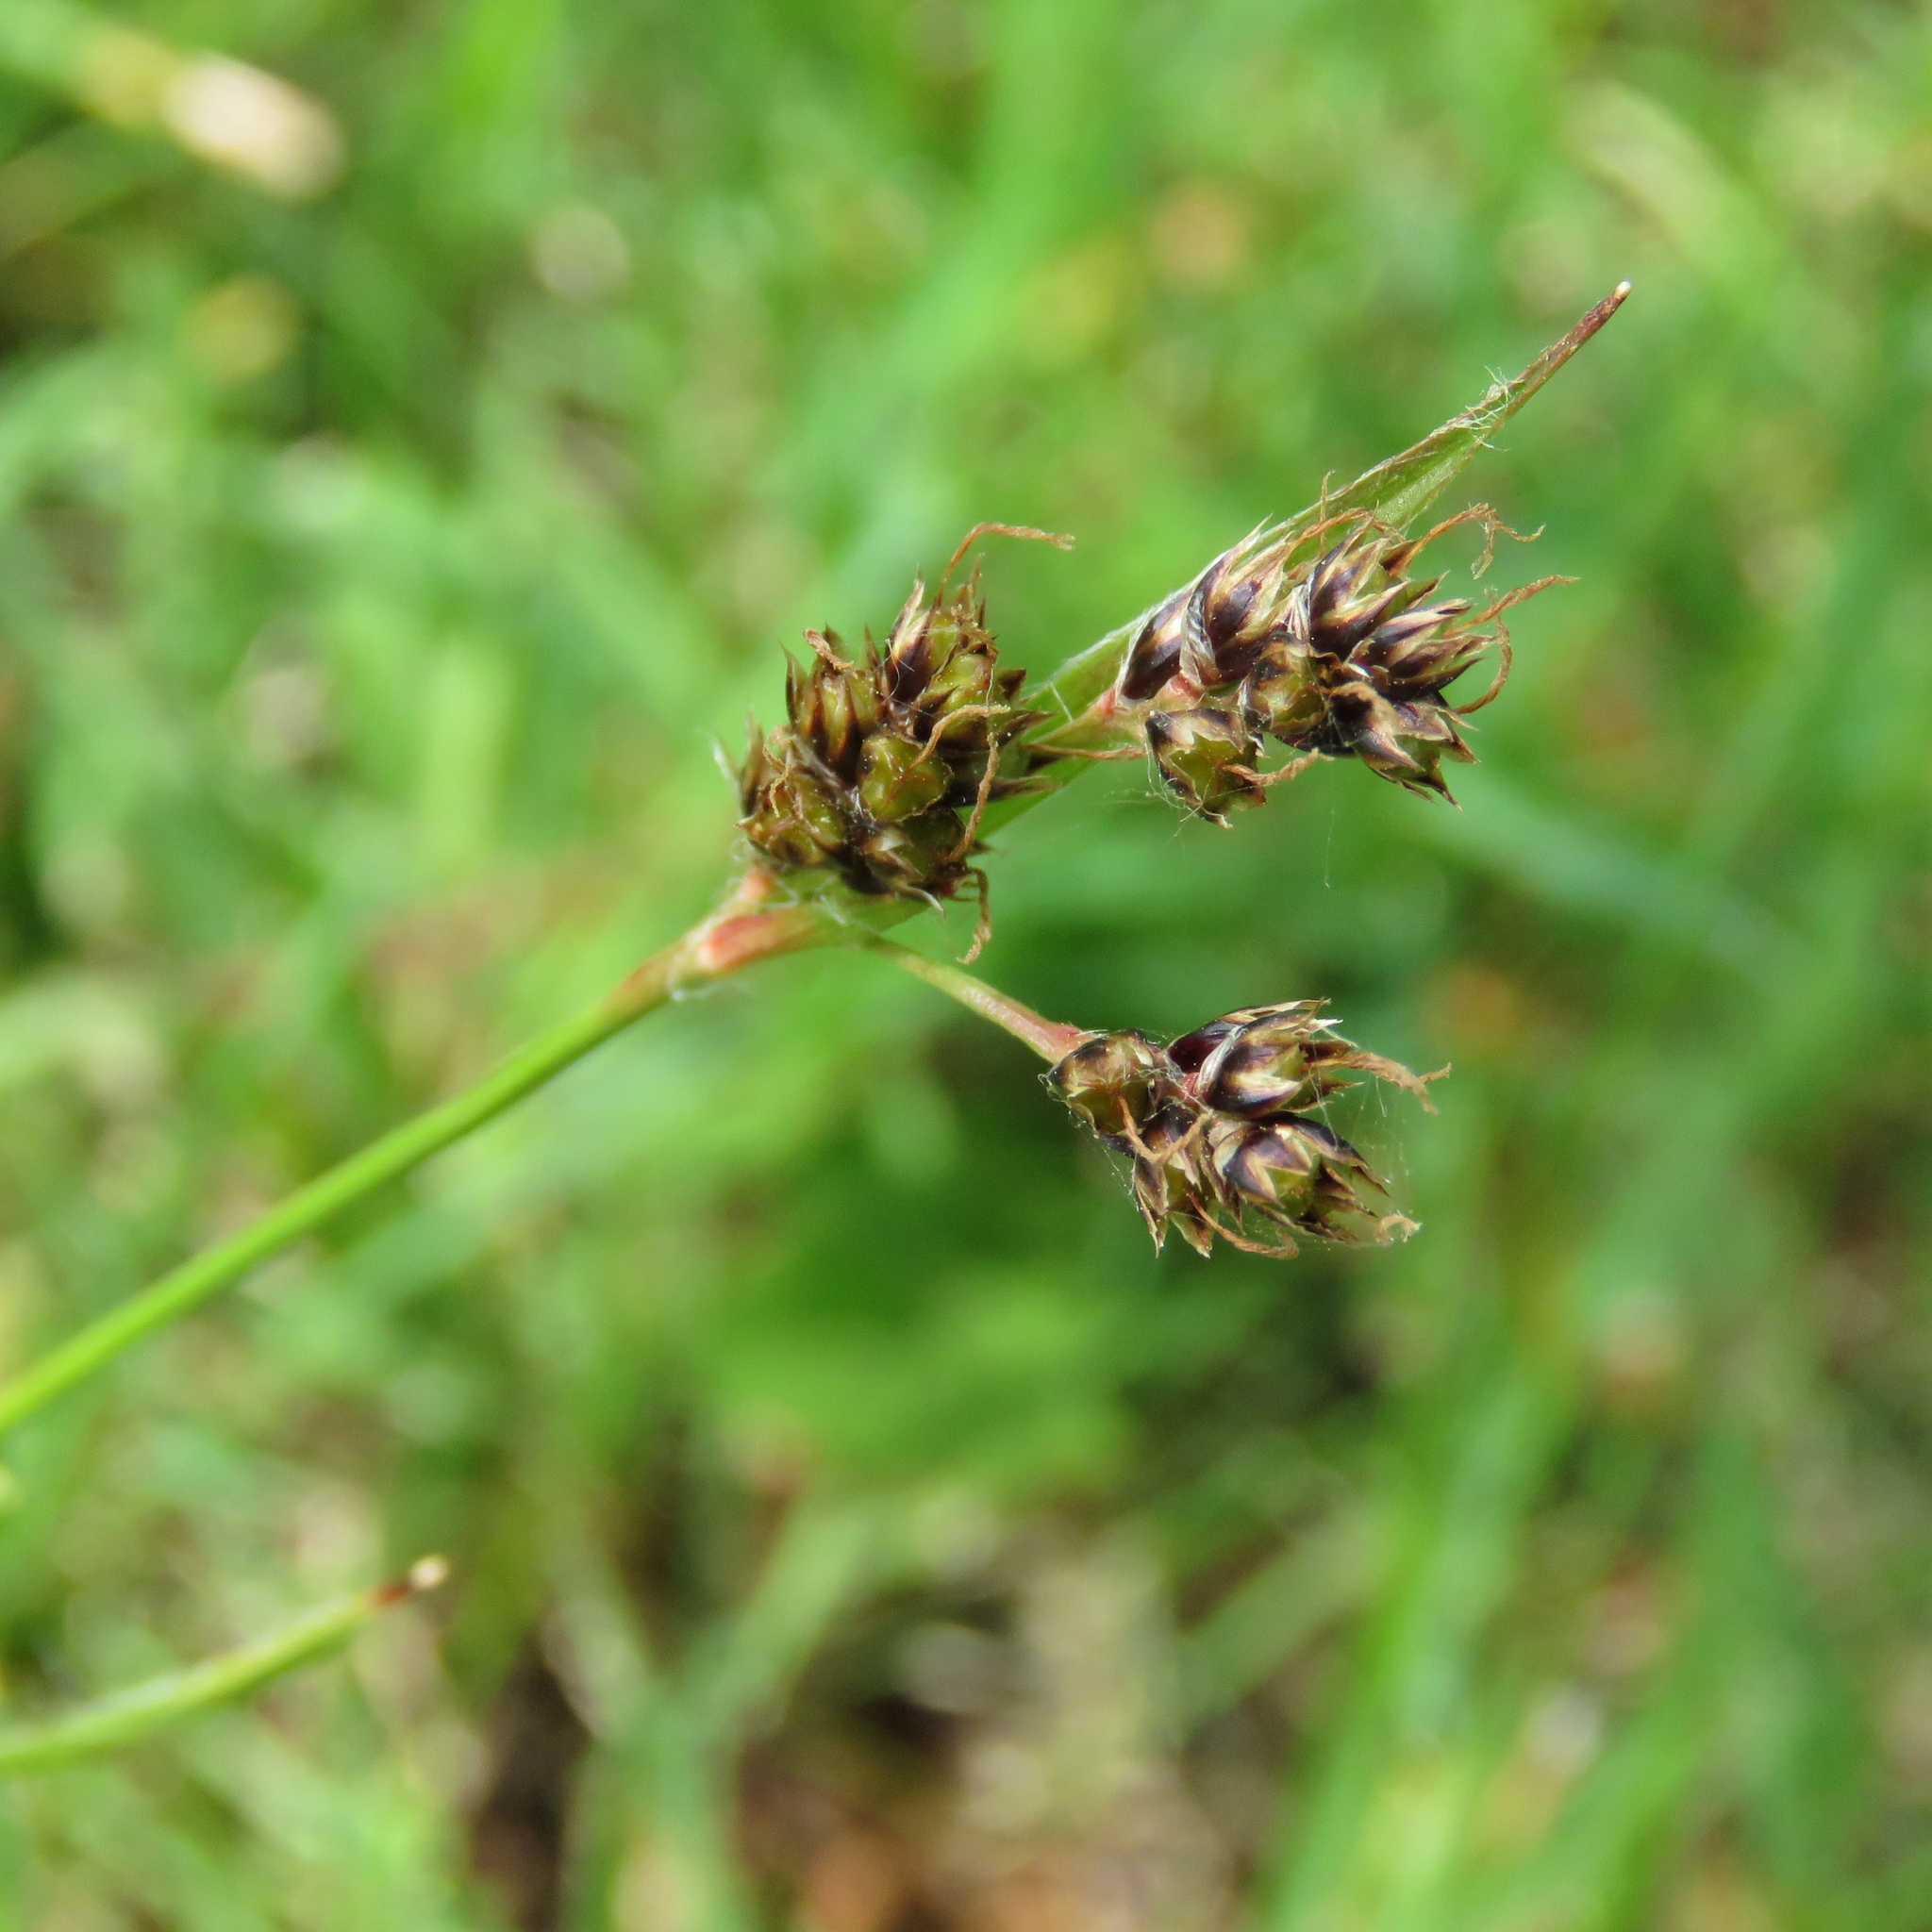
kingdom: Plantae
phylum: Tracheophyta
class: Liliopsida
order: Poales
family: Juncaceae
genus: Luzula
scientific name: Luzula campestris
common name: Field wood-rush
